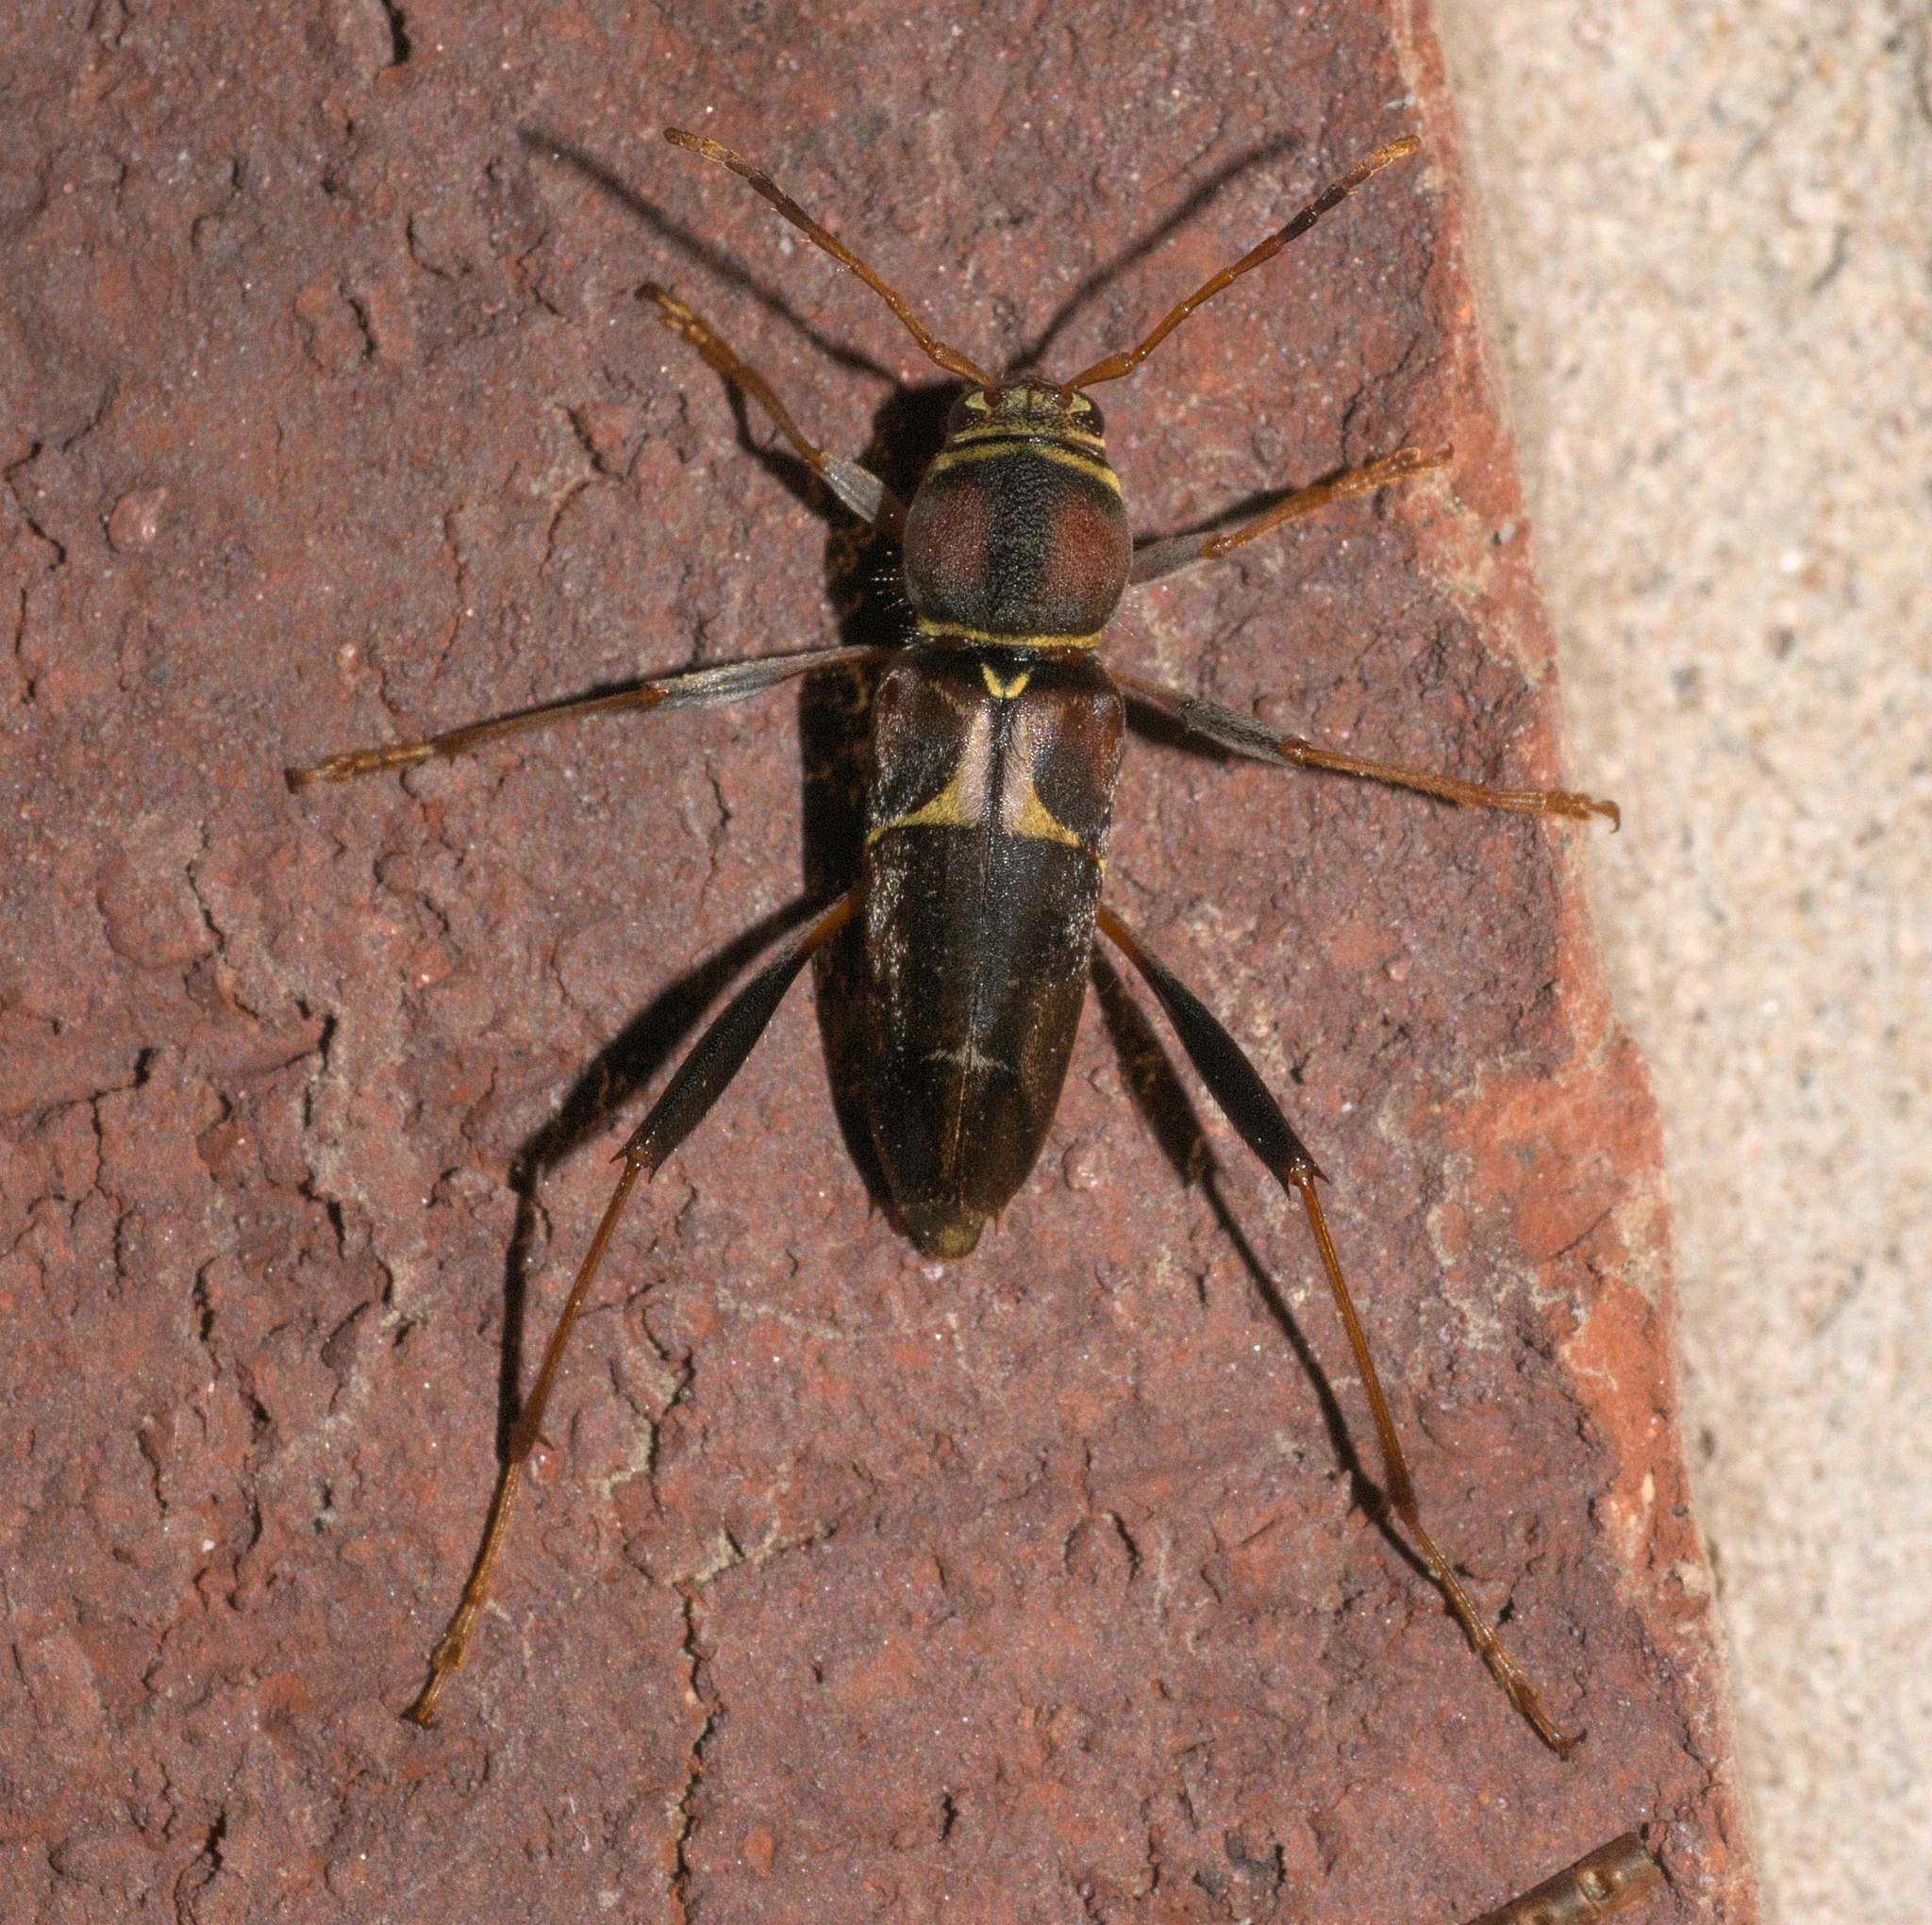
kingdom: Animalia
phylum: Arthropoda
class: Insecta
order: Coleoptera
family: Cerambycidae
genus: Neoclytus
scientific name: Neoclytus mucronatus
